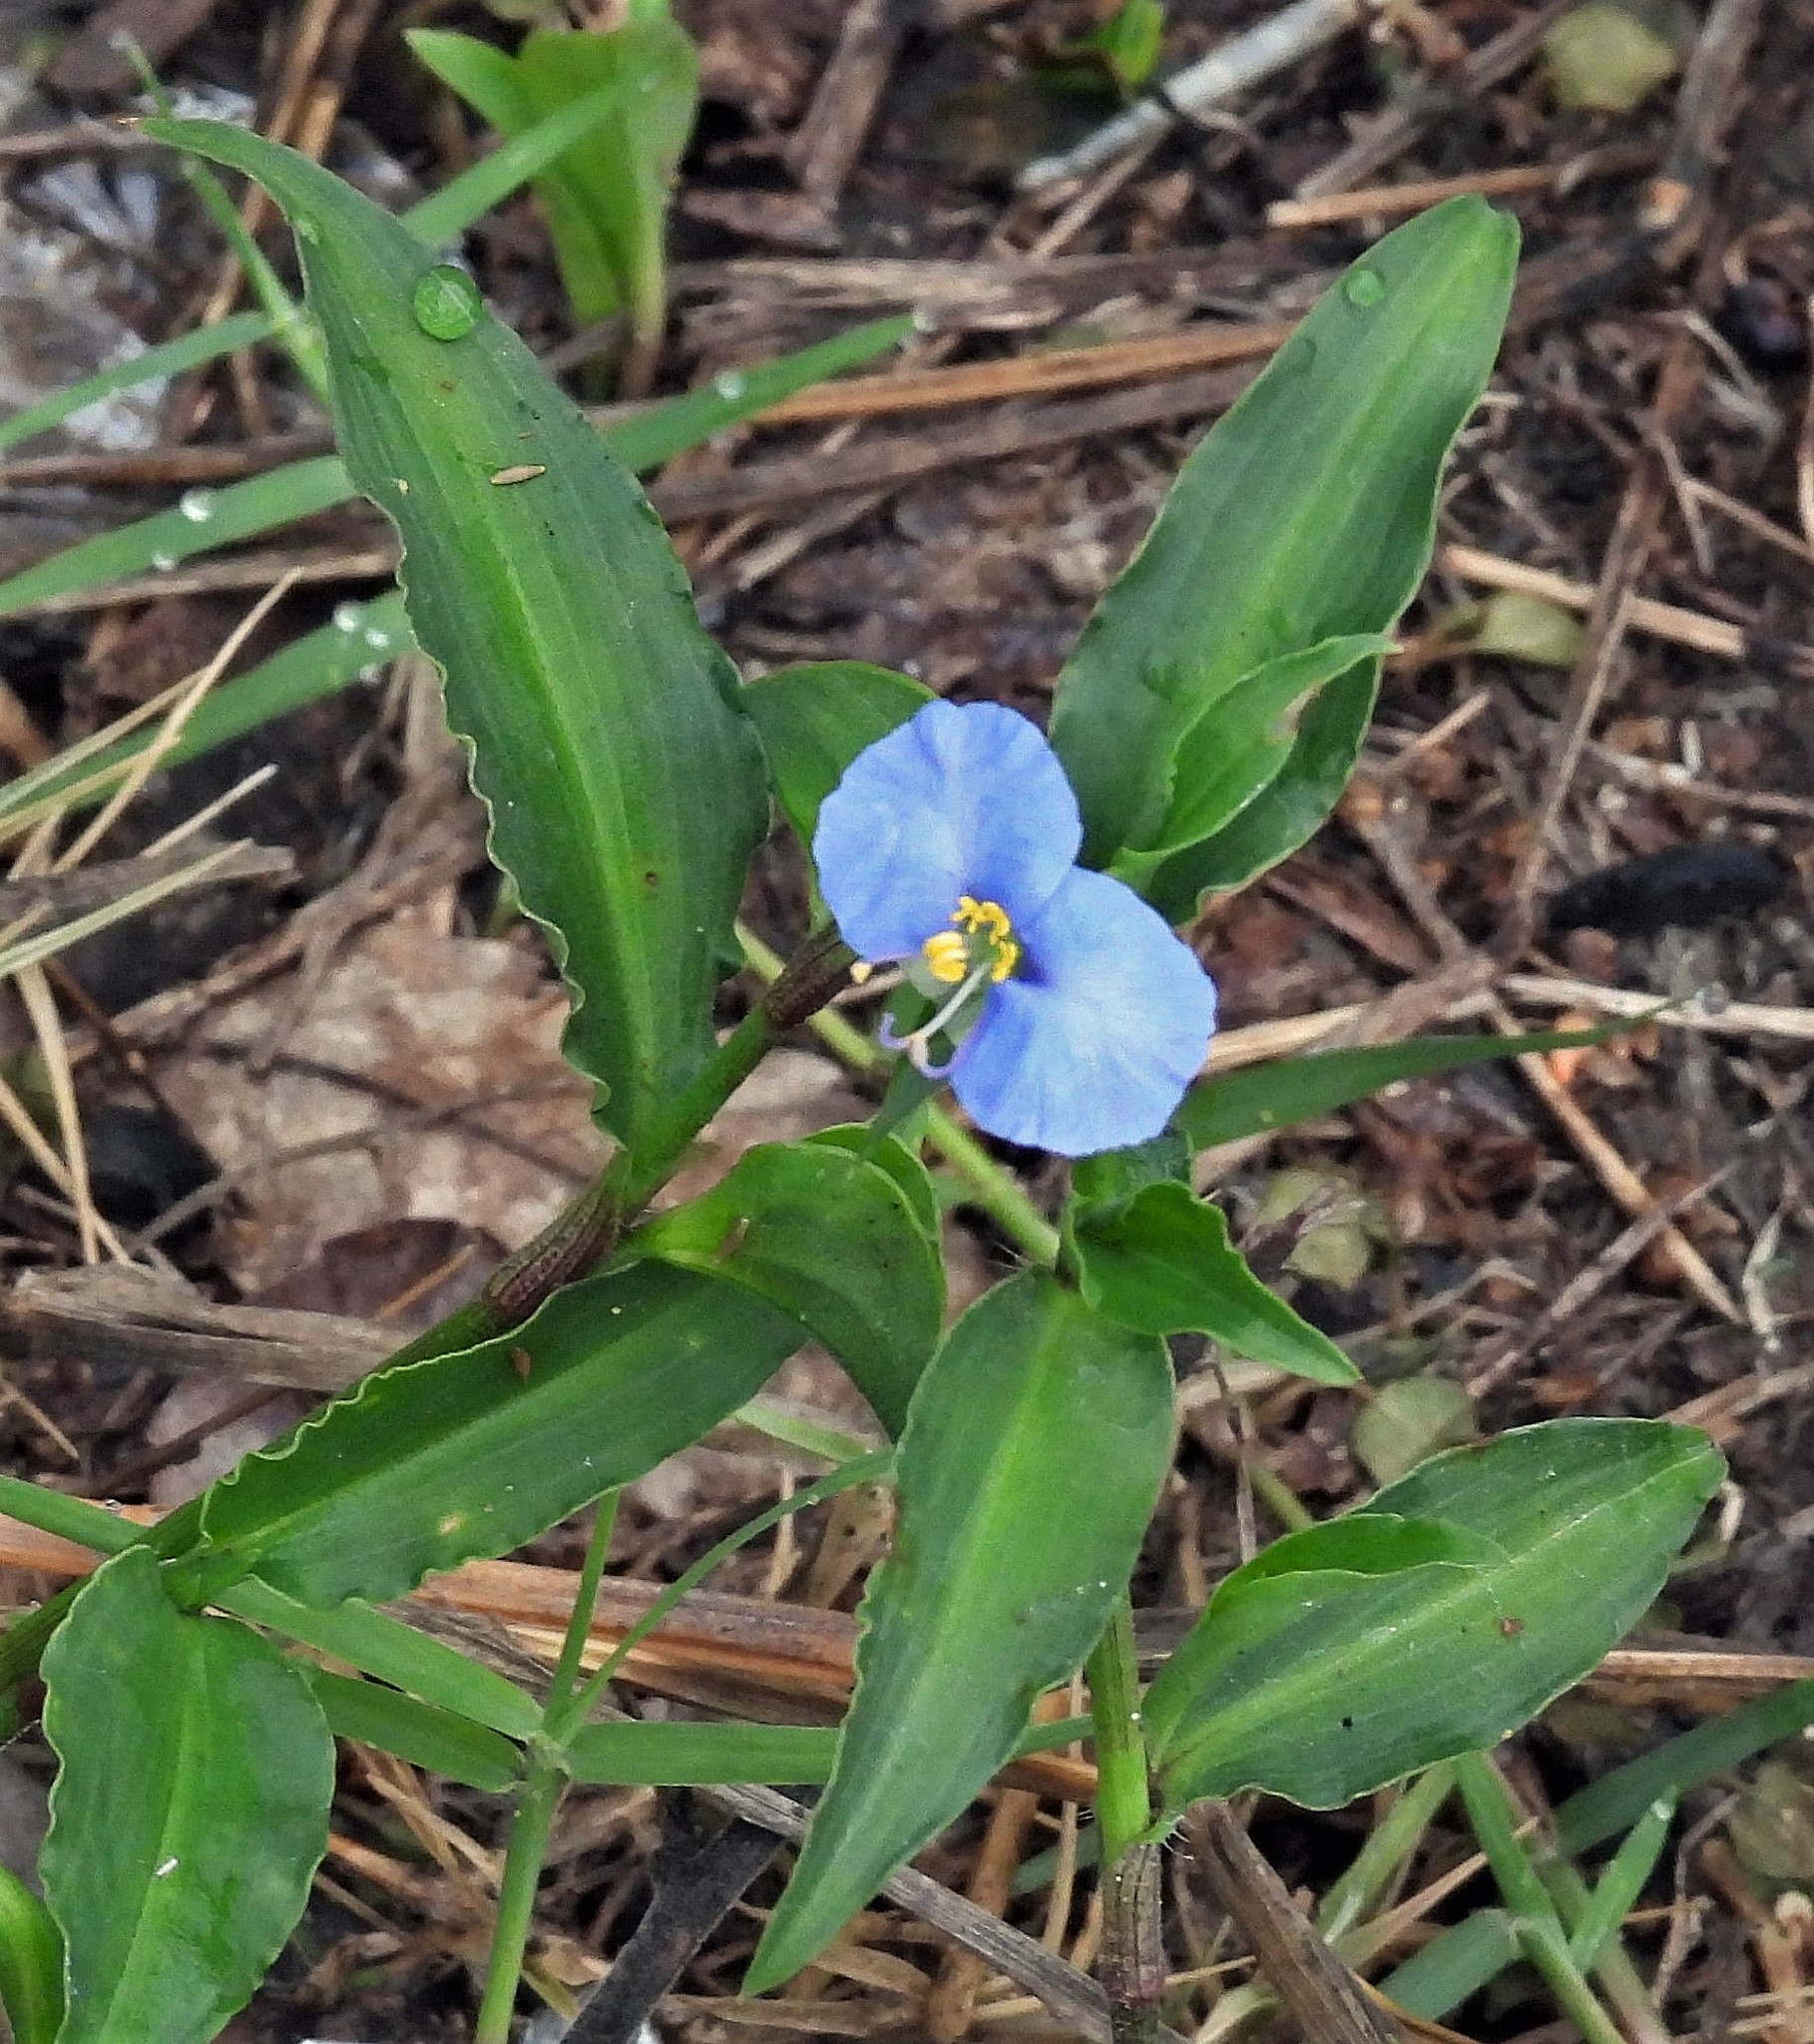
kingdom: Plantae
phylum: Tracheophyta
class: Liliopsida
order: Commelinales
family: Commelinaceae
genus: Commelina
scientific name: Commelina erecta
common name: Blousel blommetjie
